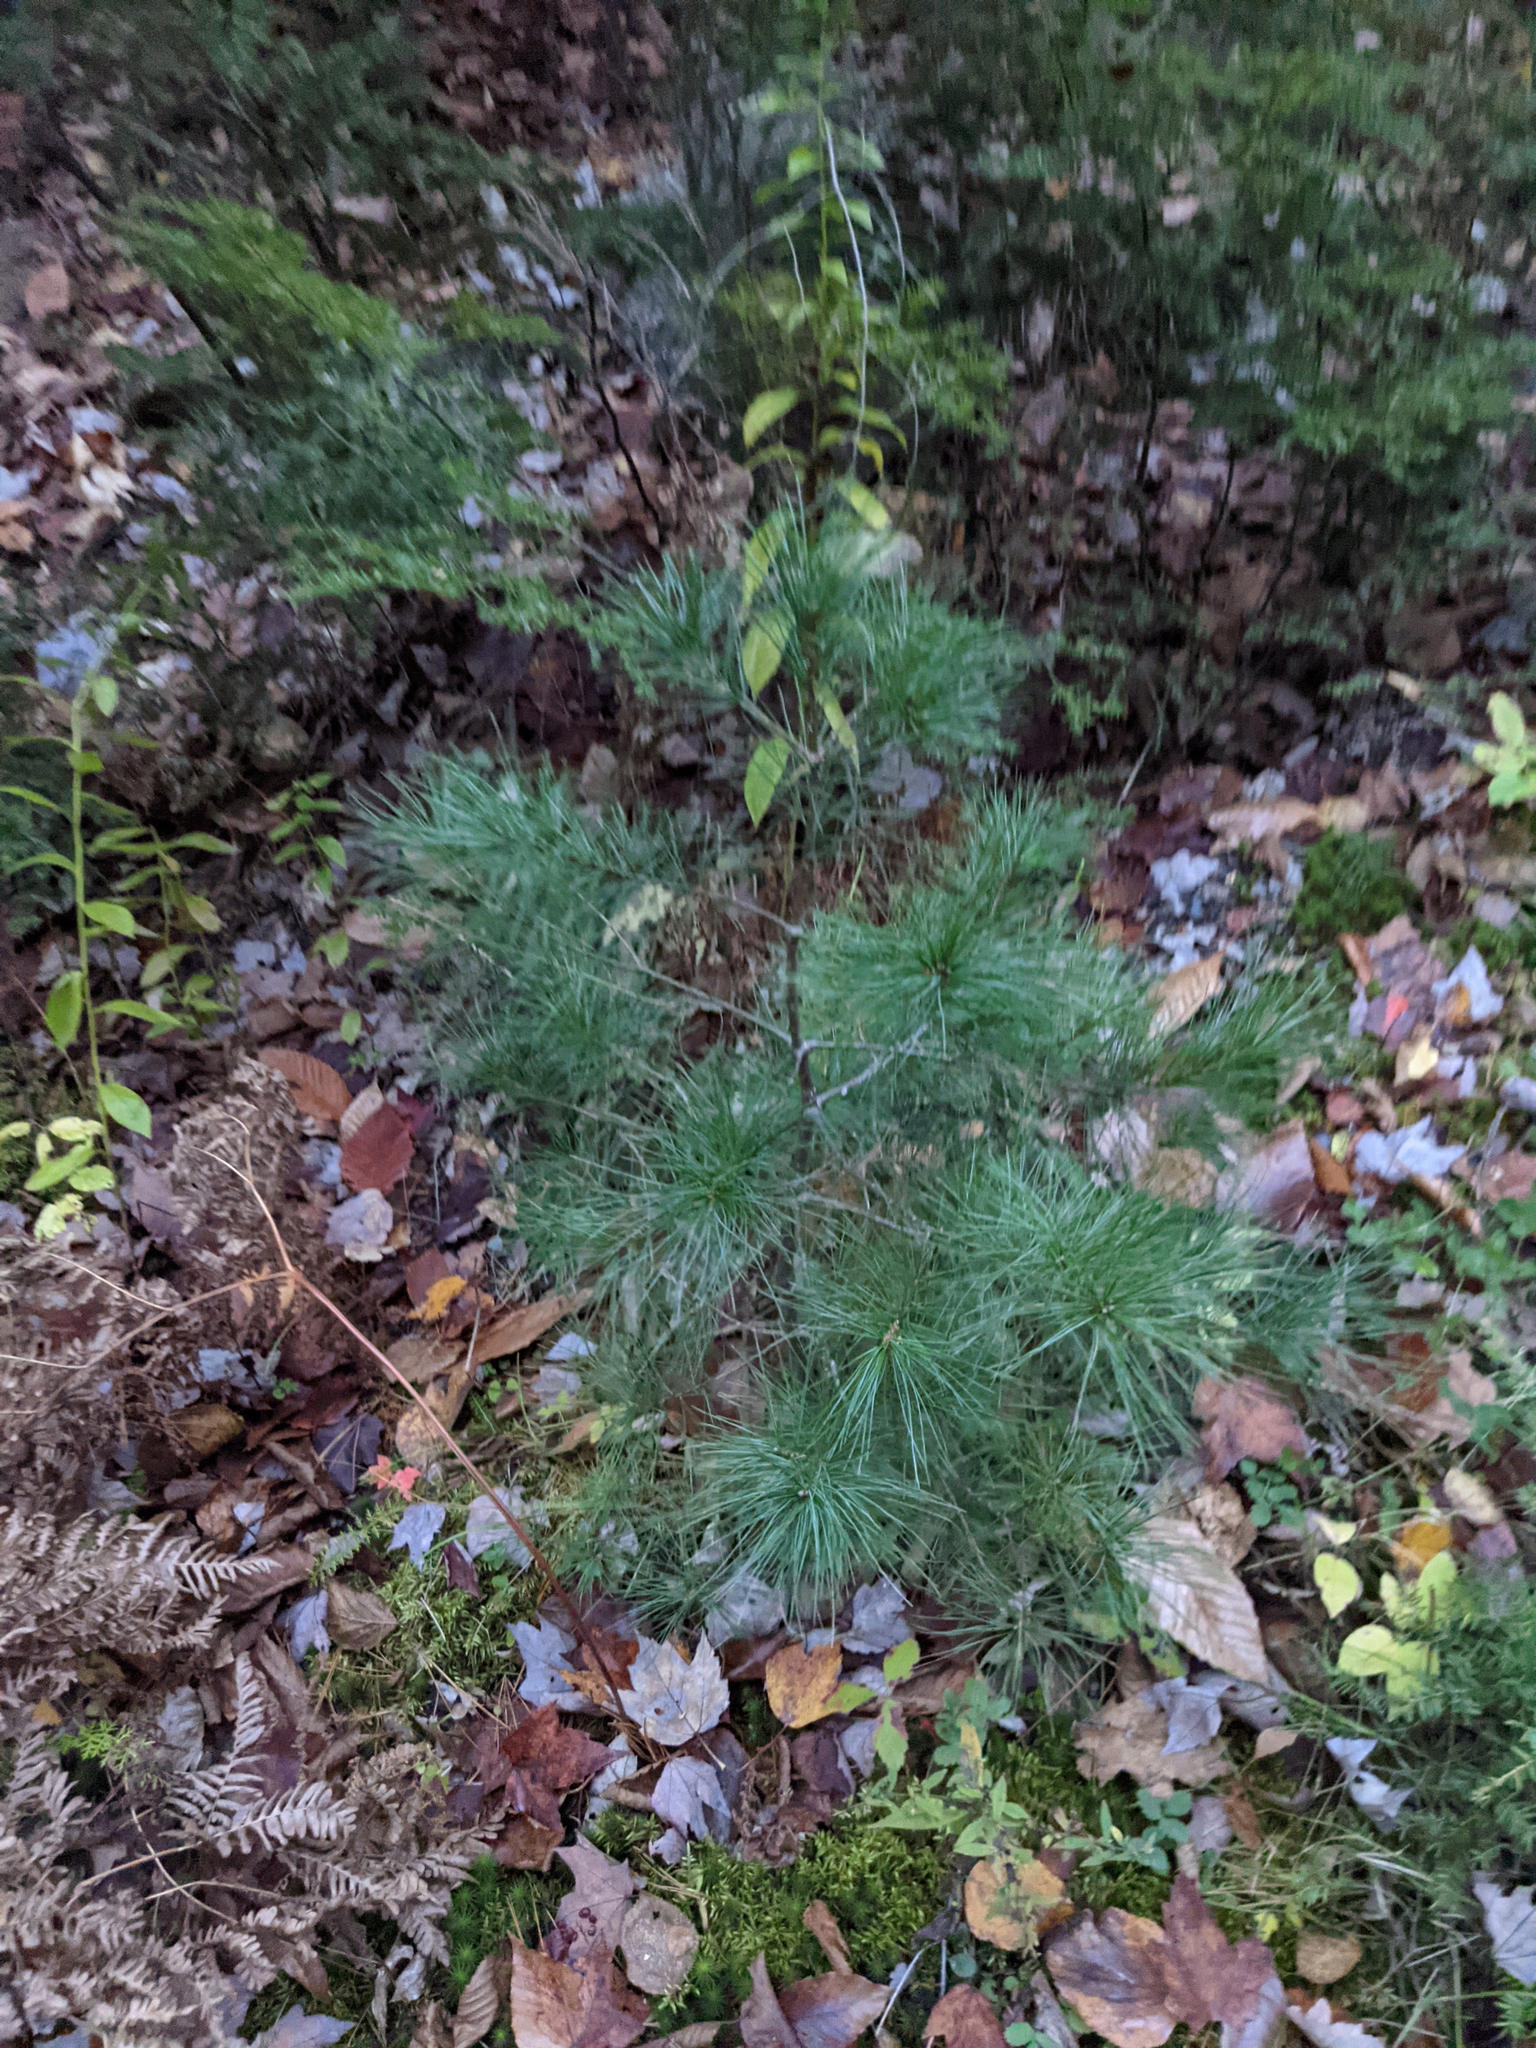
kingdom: Plantae
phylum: Tracheophyta
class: Pinopsida
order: Pinales
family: Pinaceae
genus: Pinus
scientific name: Pinus strobus
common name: Weymouth pine
